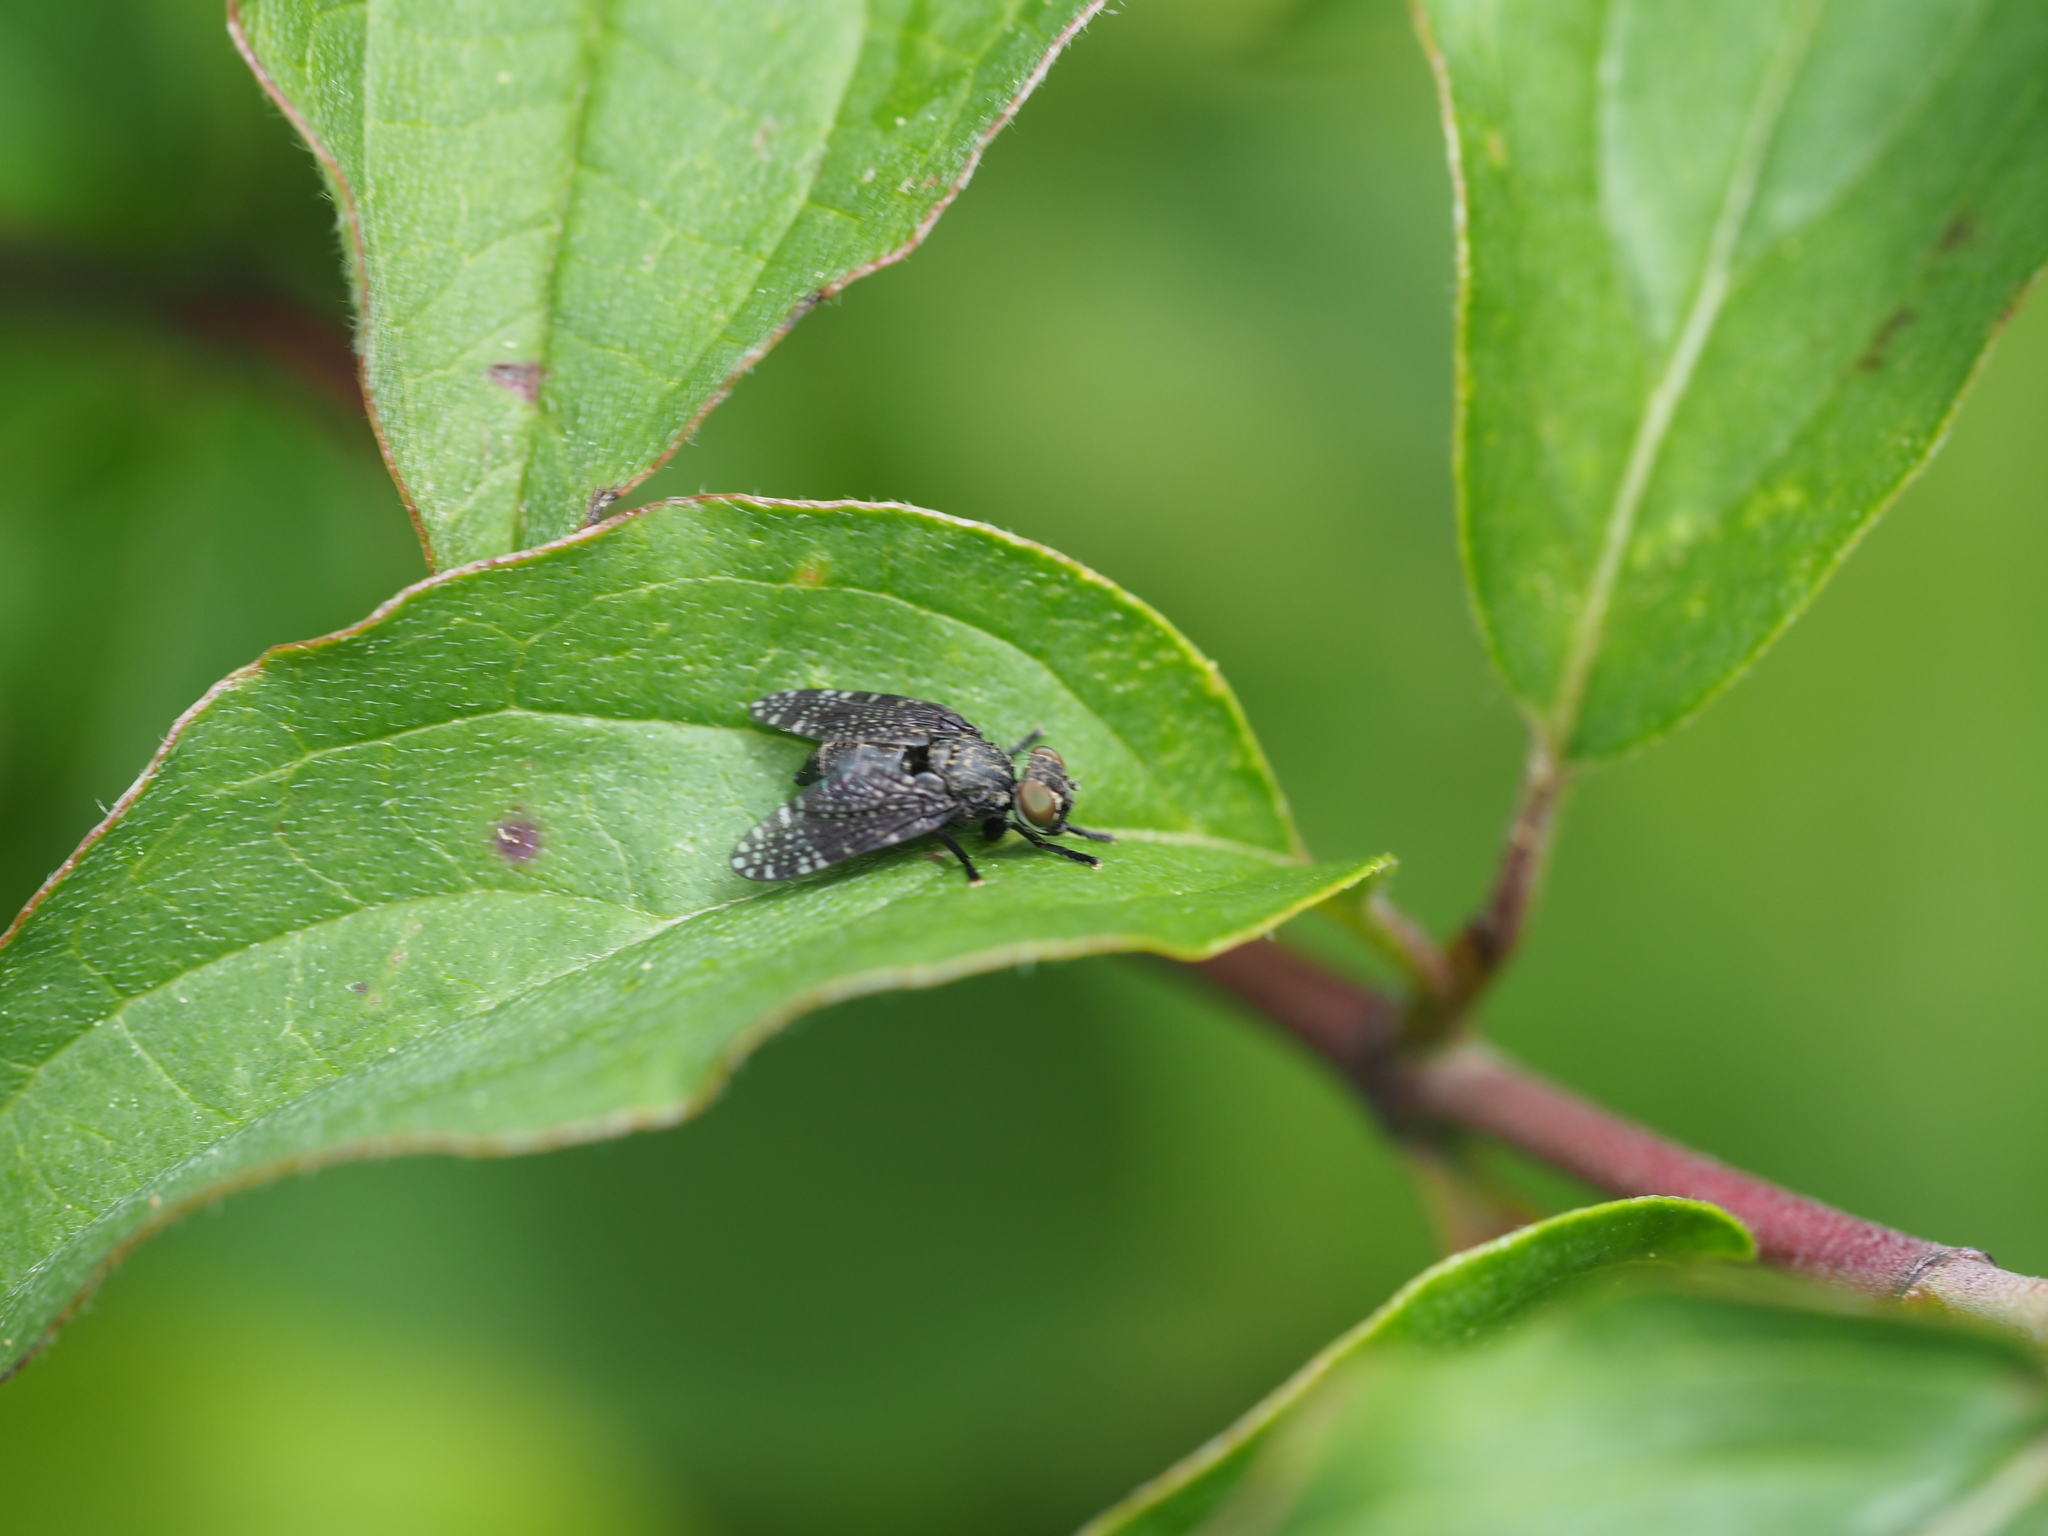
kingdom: Animalia
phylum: Arthropoda
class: Insecta
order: Diptera
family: Platystomatidae
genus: Platystoma
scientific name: Platystoma seminationis
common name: Fly
